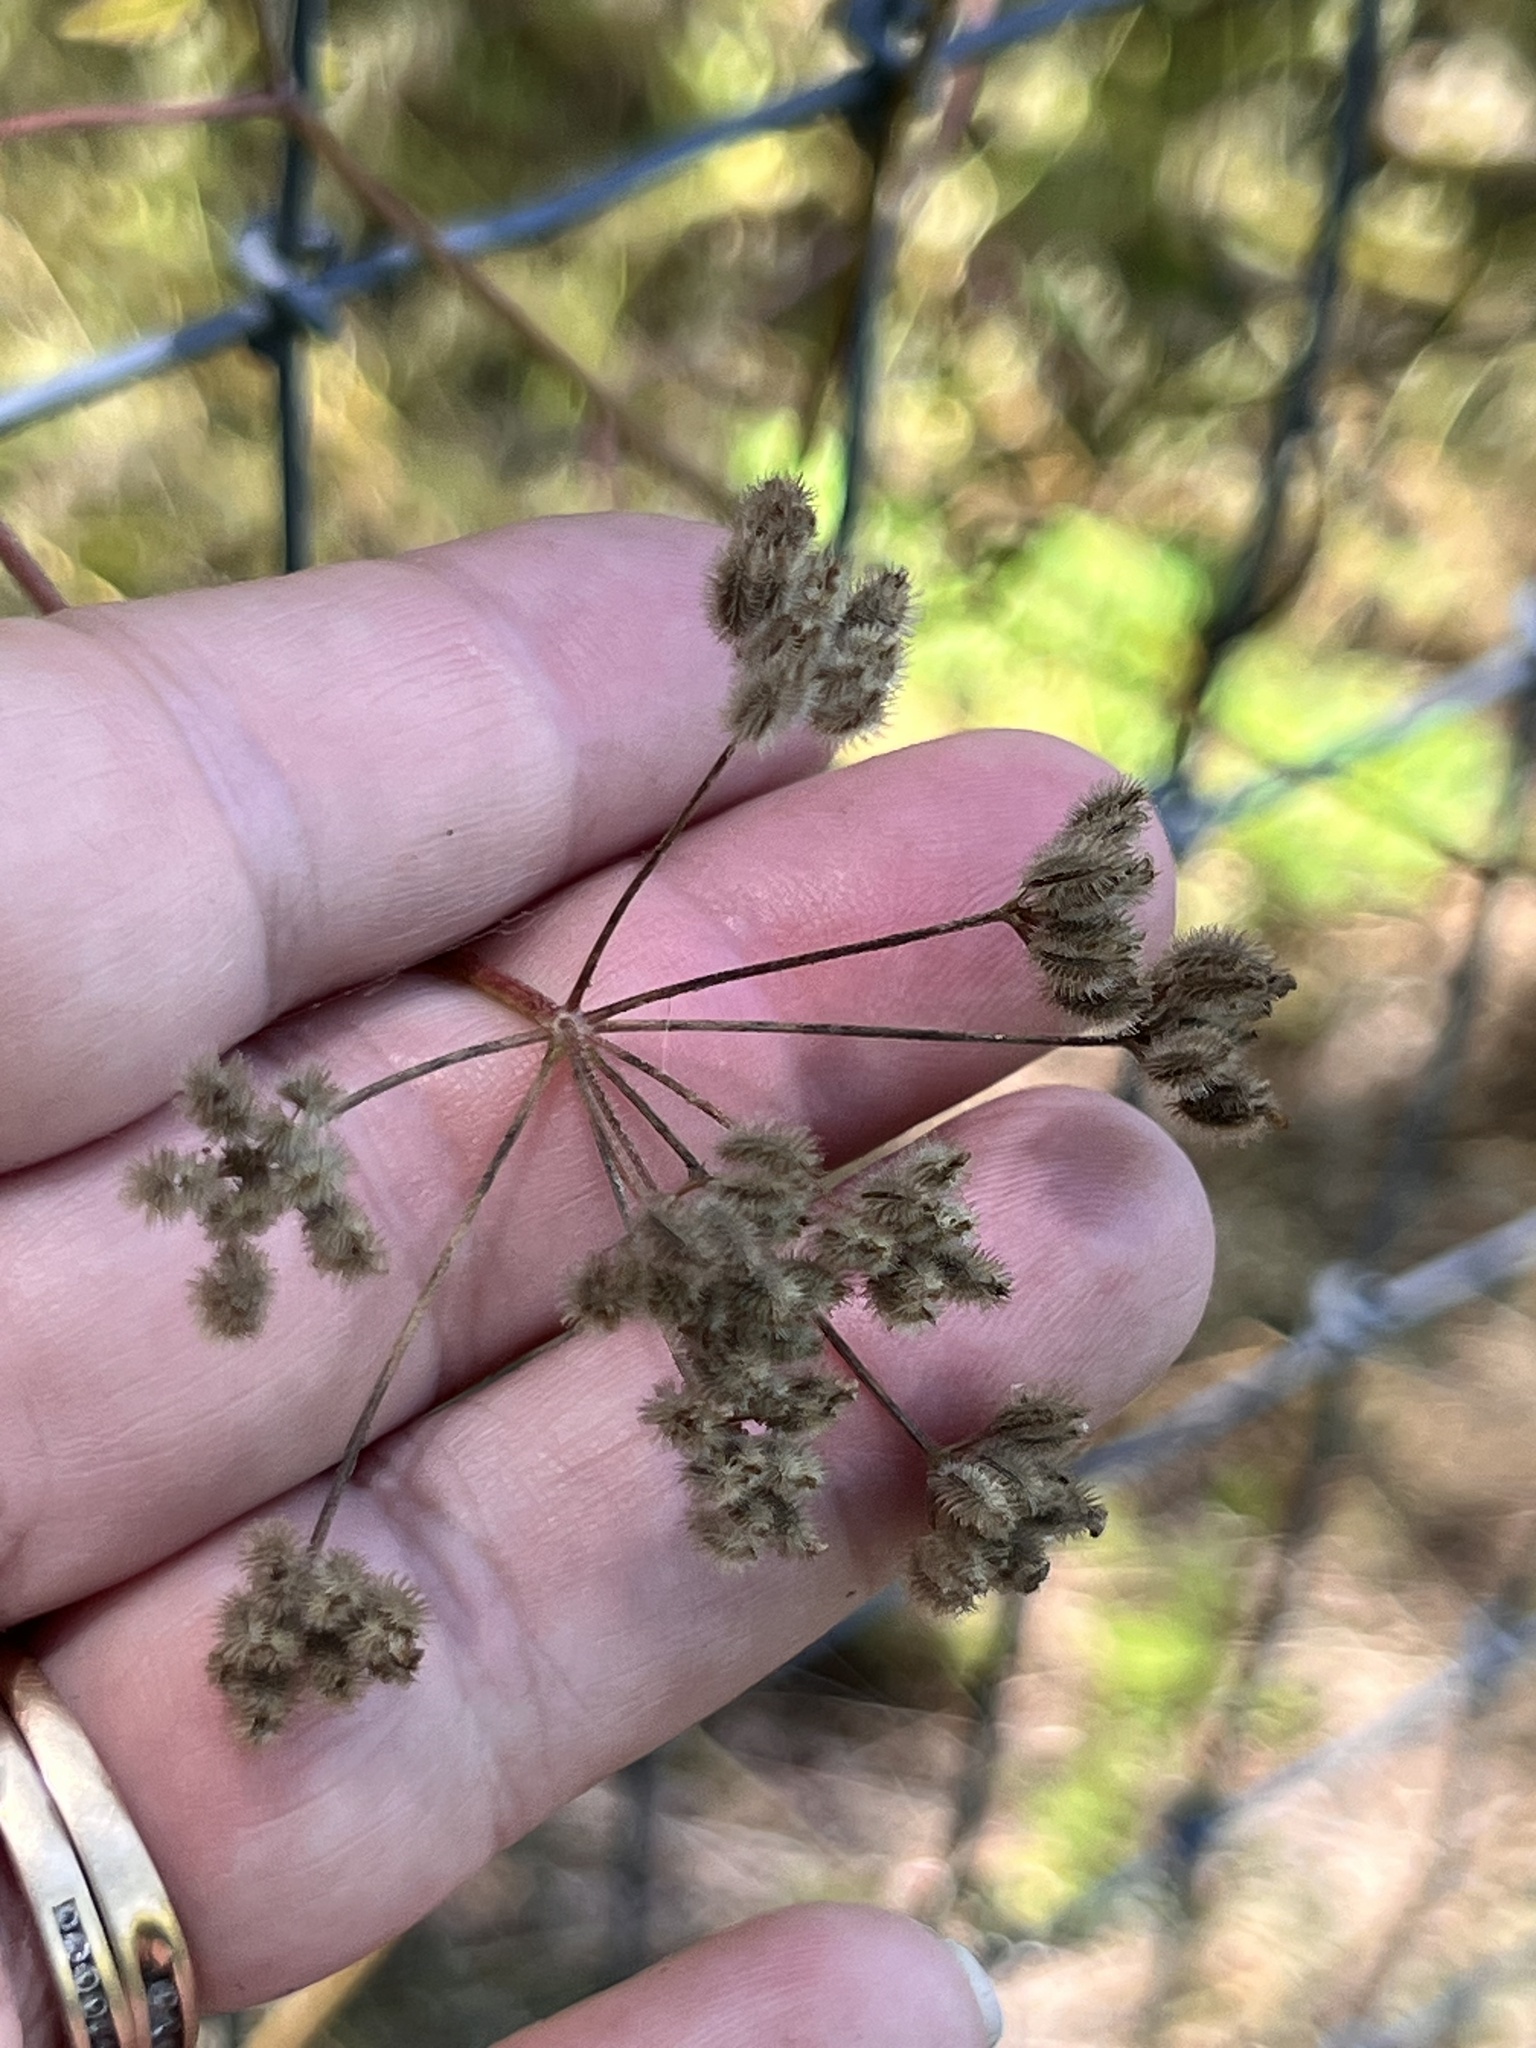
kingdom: Plantae
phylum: Tracheophyta
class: Magnoliopsida
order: Apiales
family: Apiaceae
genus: Torilis
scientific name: Torilis arvensis
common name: Spreading hedge-parsley
